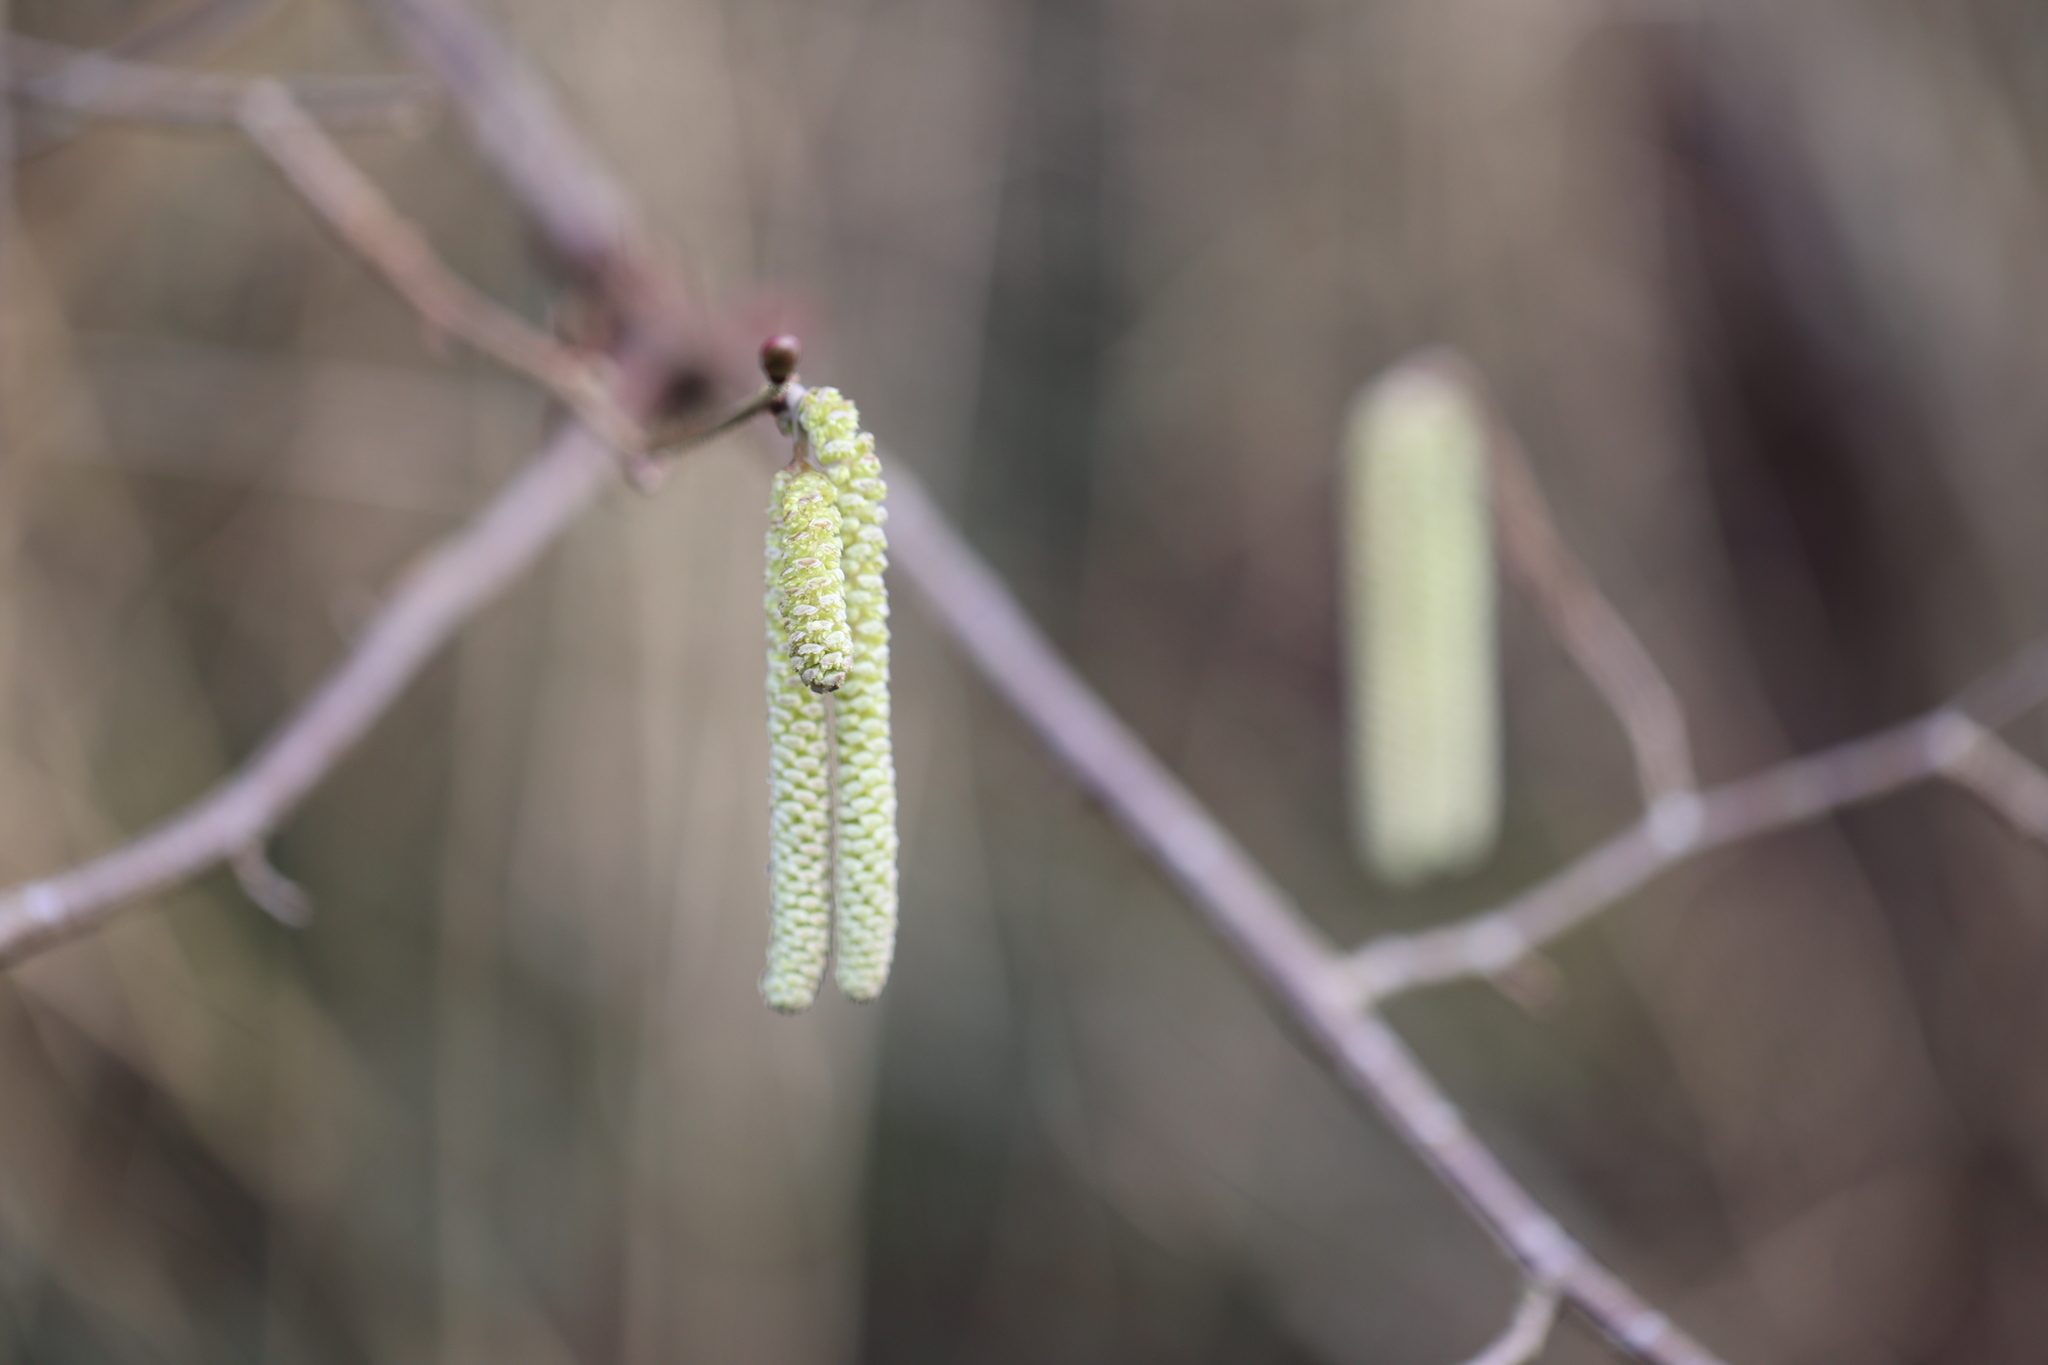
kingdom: Plantae
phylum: Tracheophyta
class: Magnoliopsida
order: Fagales
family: Betulaceae
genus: Corylus
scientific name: Corylus avellana
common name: European hazel
